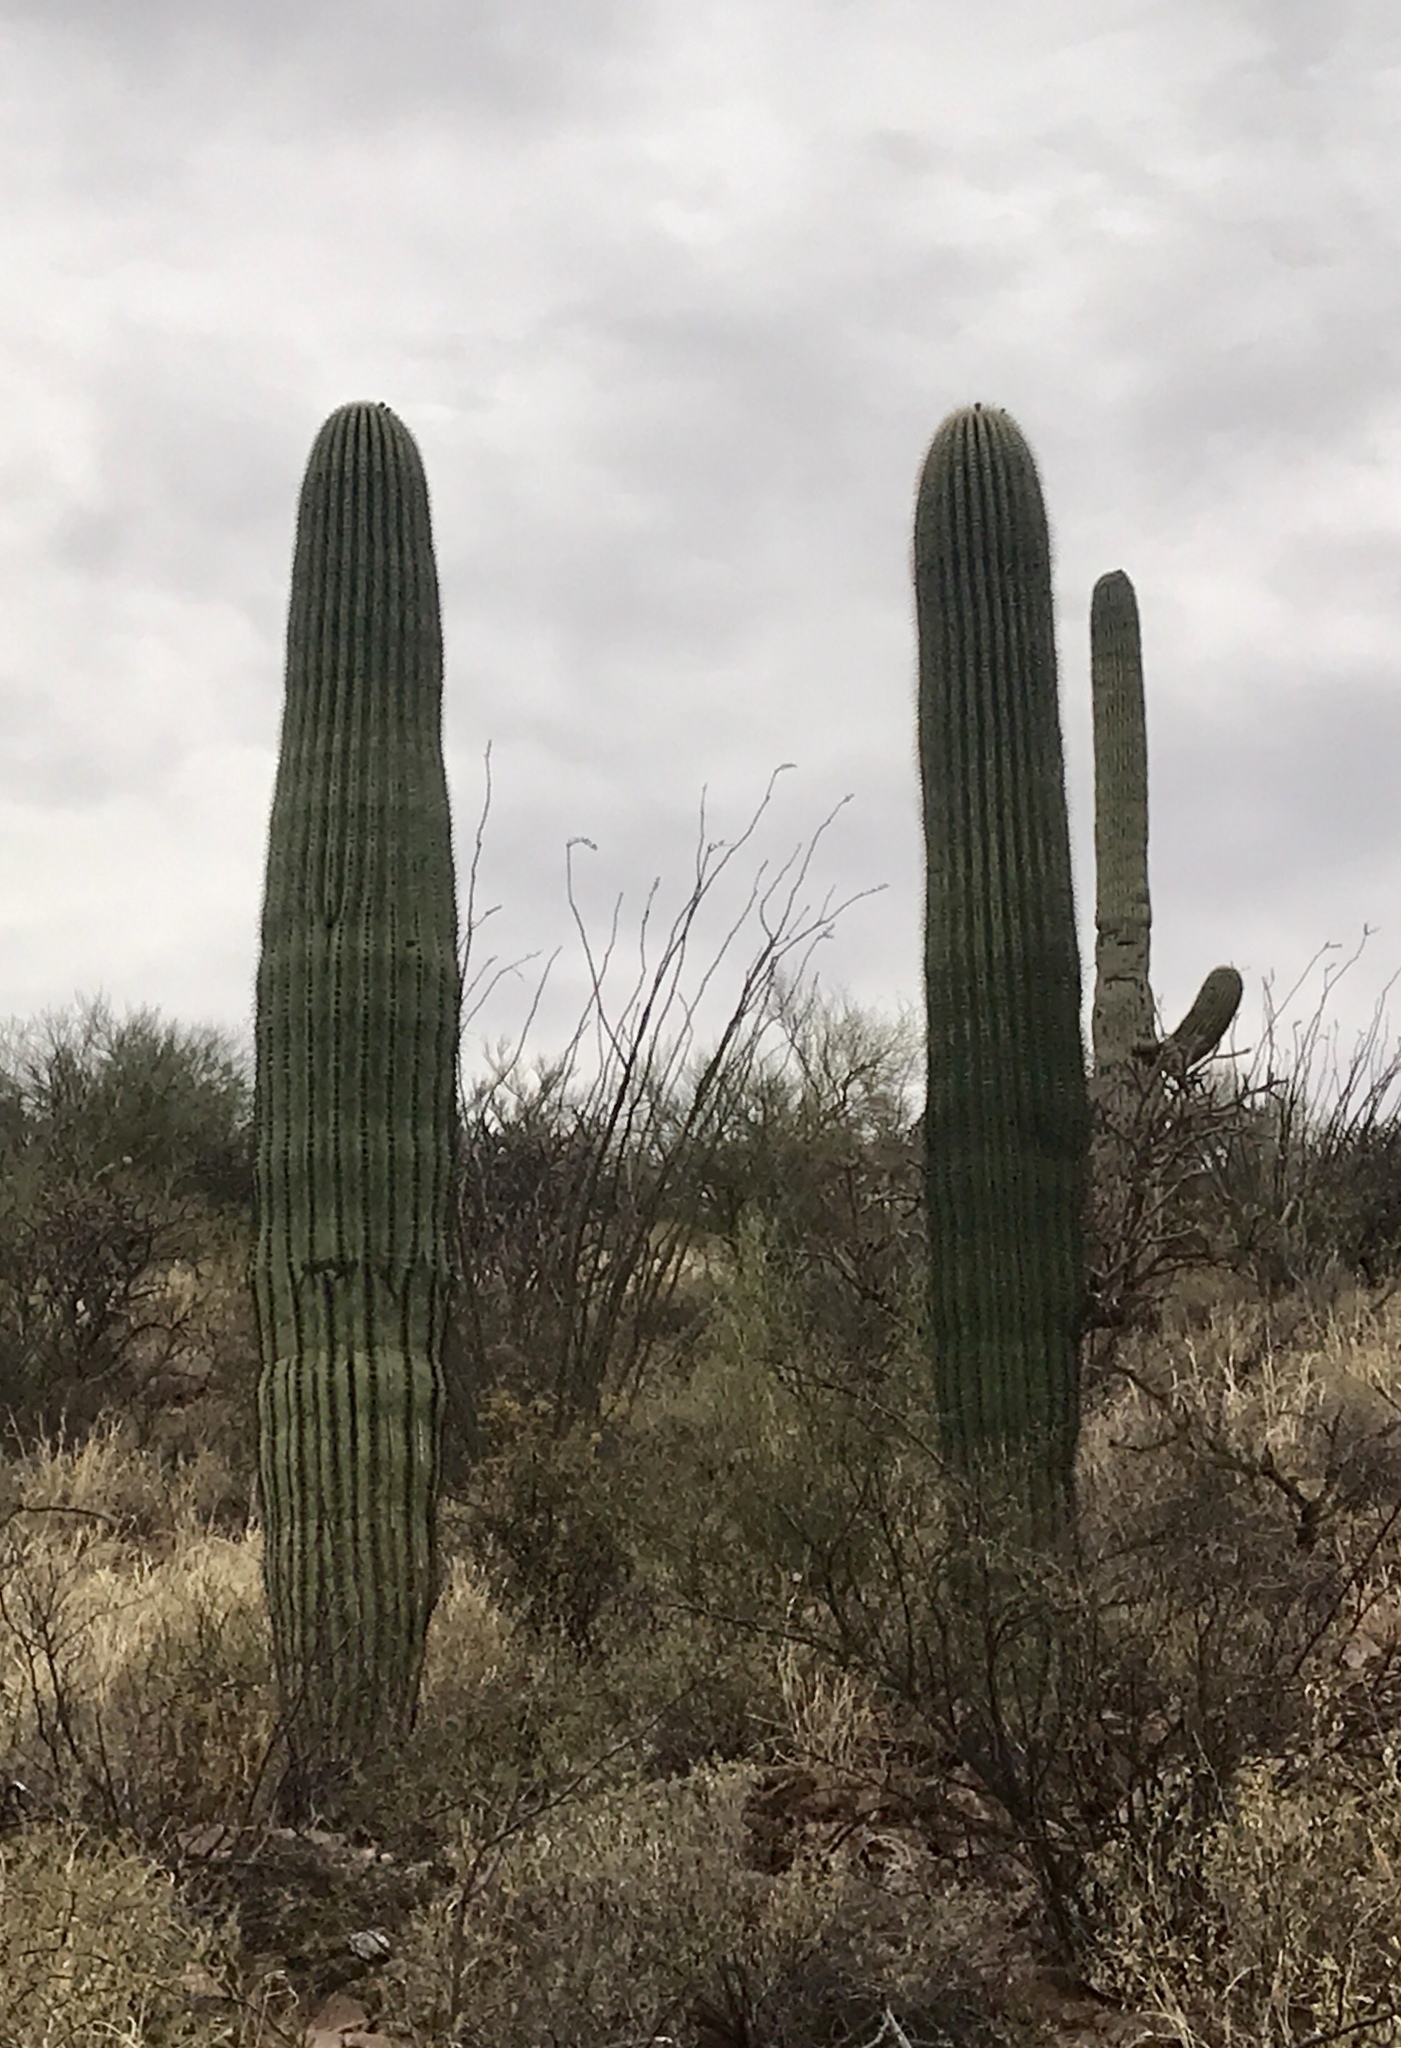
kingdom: Plantae
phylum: Tracheophyta
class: Magnoliopsida
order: Caryophyllales
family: Cactaceae
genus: Carnegiea
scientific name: Carnegiea gigantea
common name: Saguaro
